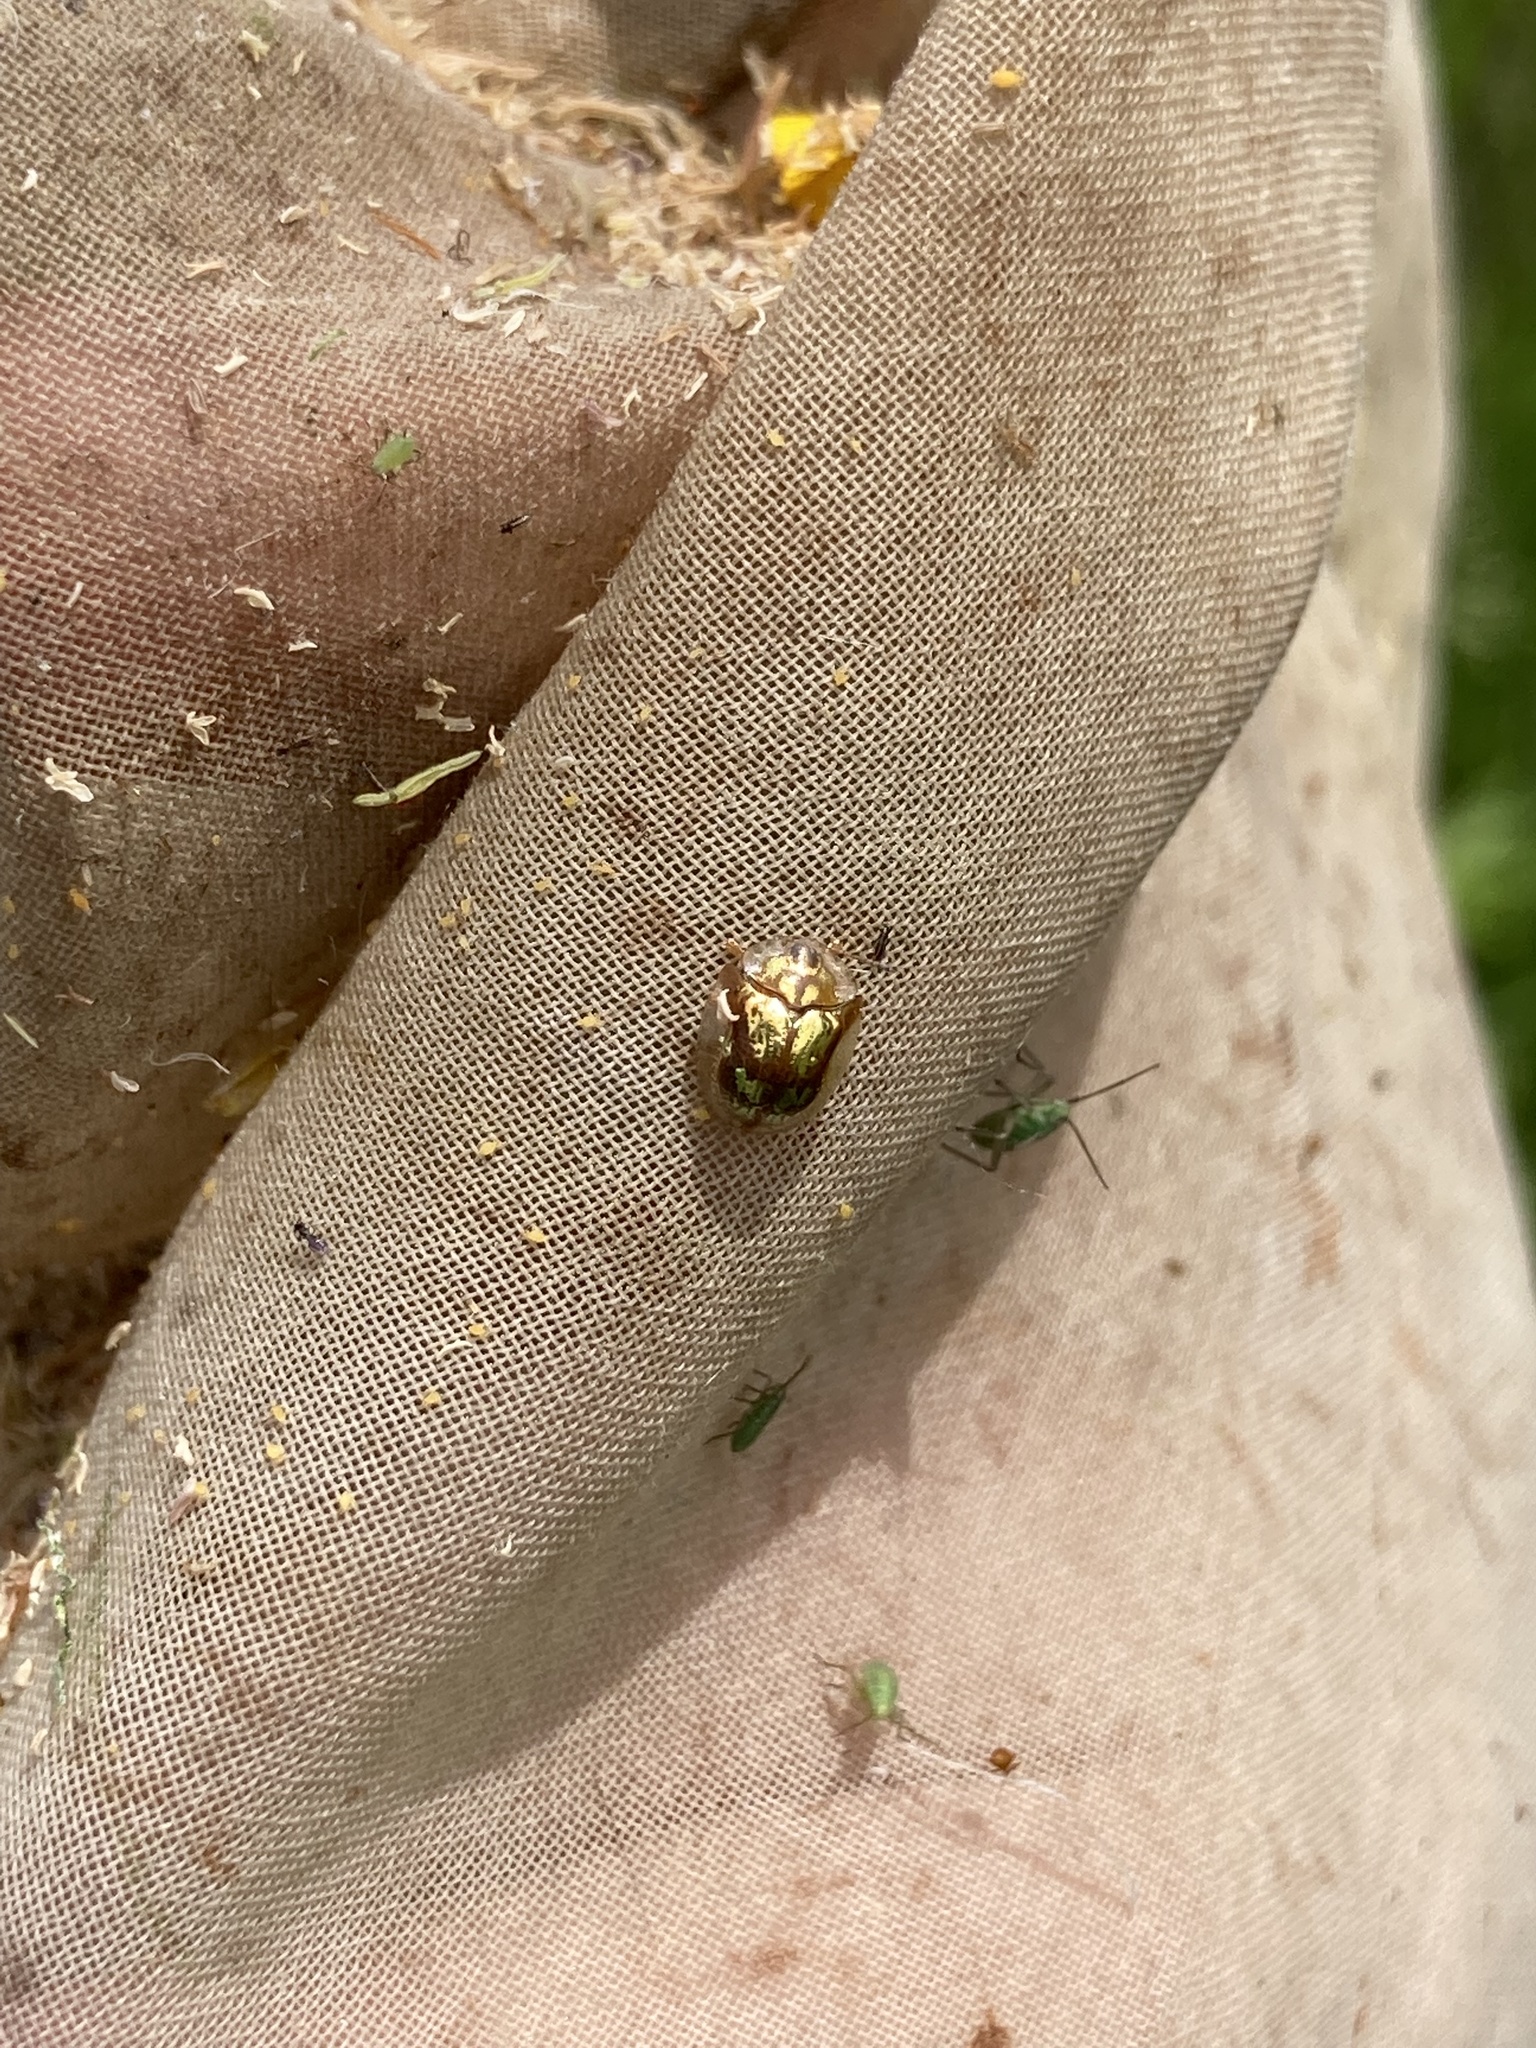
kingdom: Animalia
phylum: Arthropoda
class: Insecta
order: Coleoptera
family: Chrysomelidae
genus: Deloyala
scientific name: Deloyala guttata
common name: Mottled tortoise beetle
